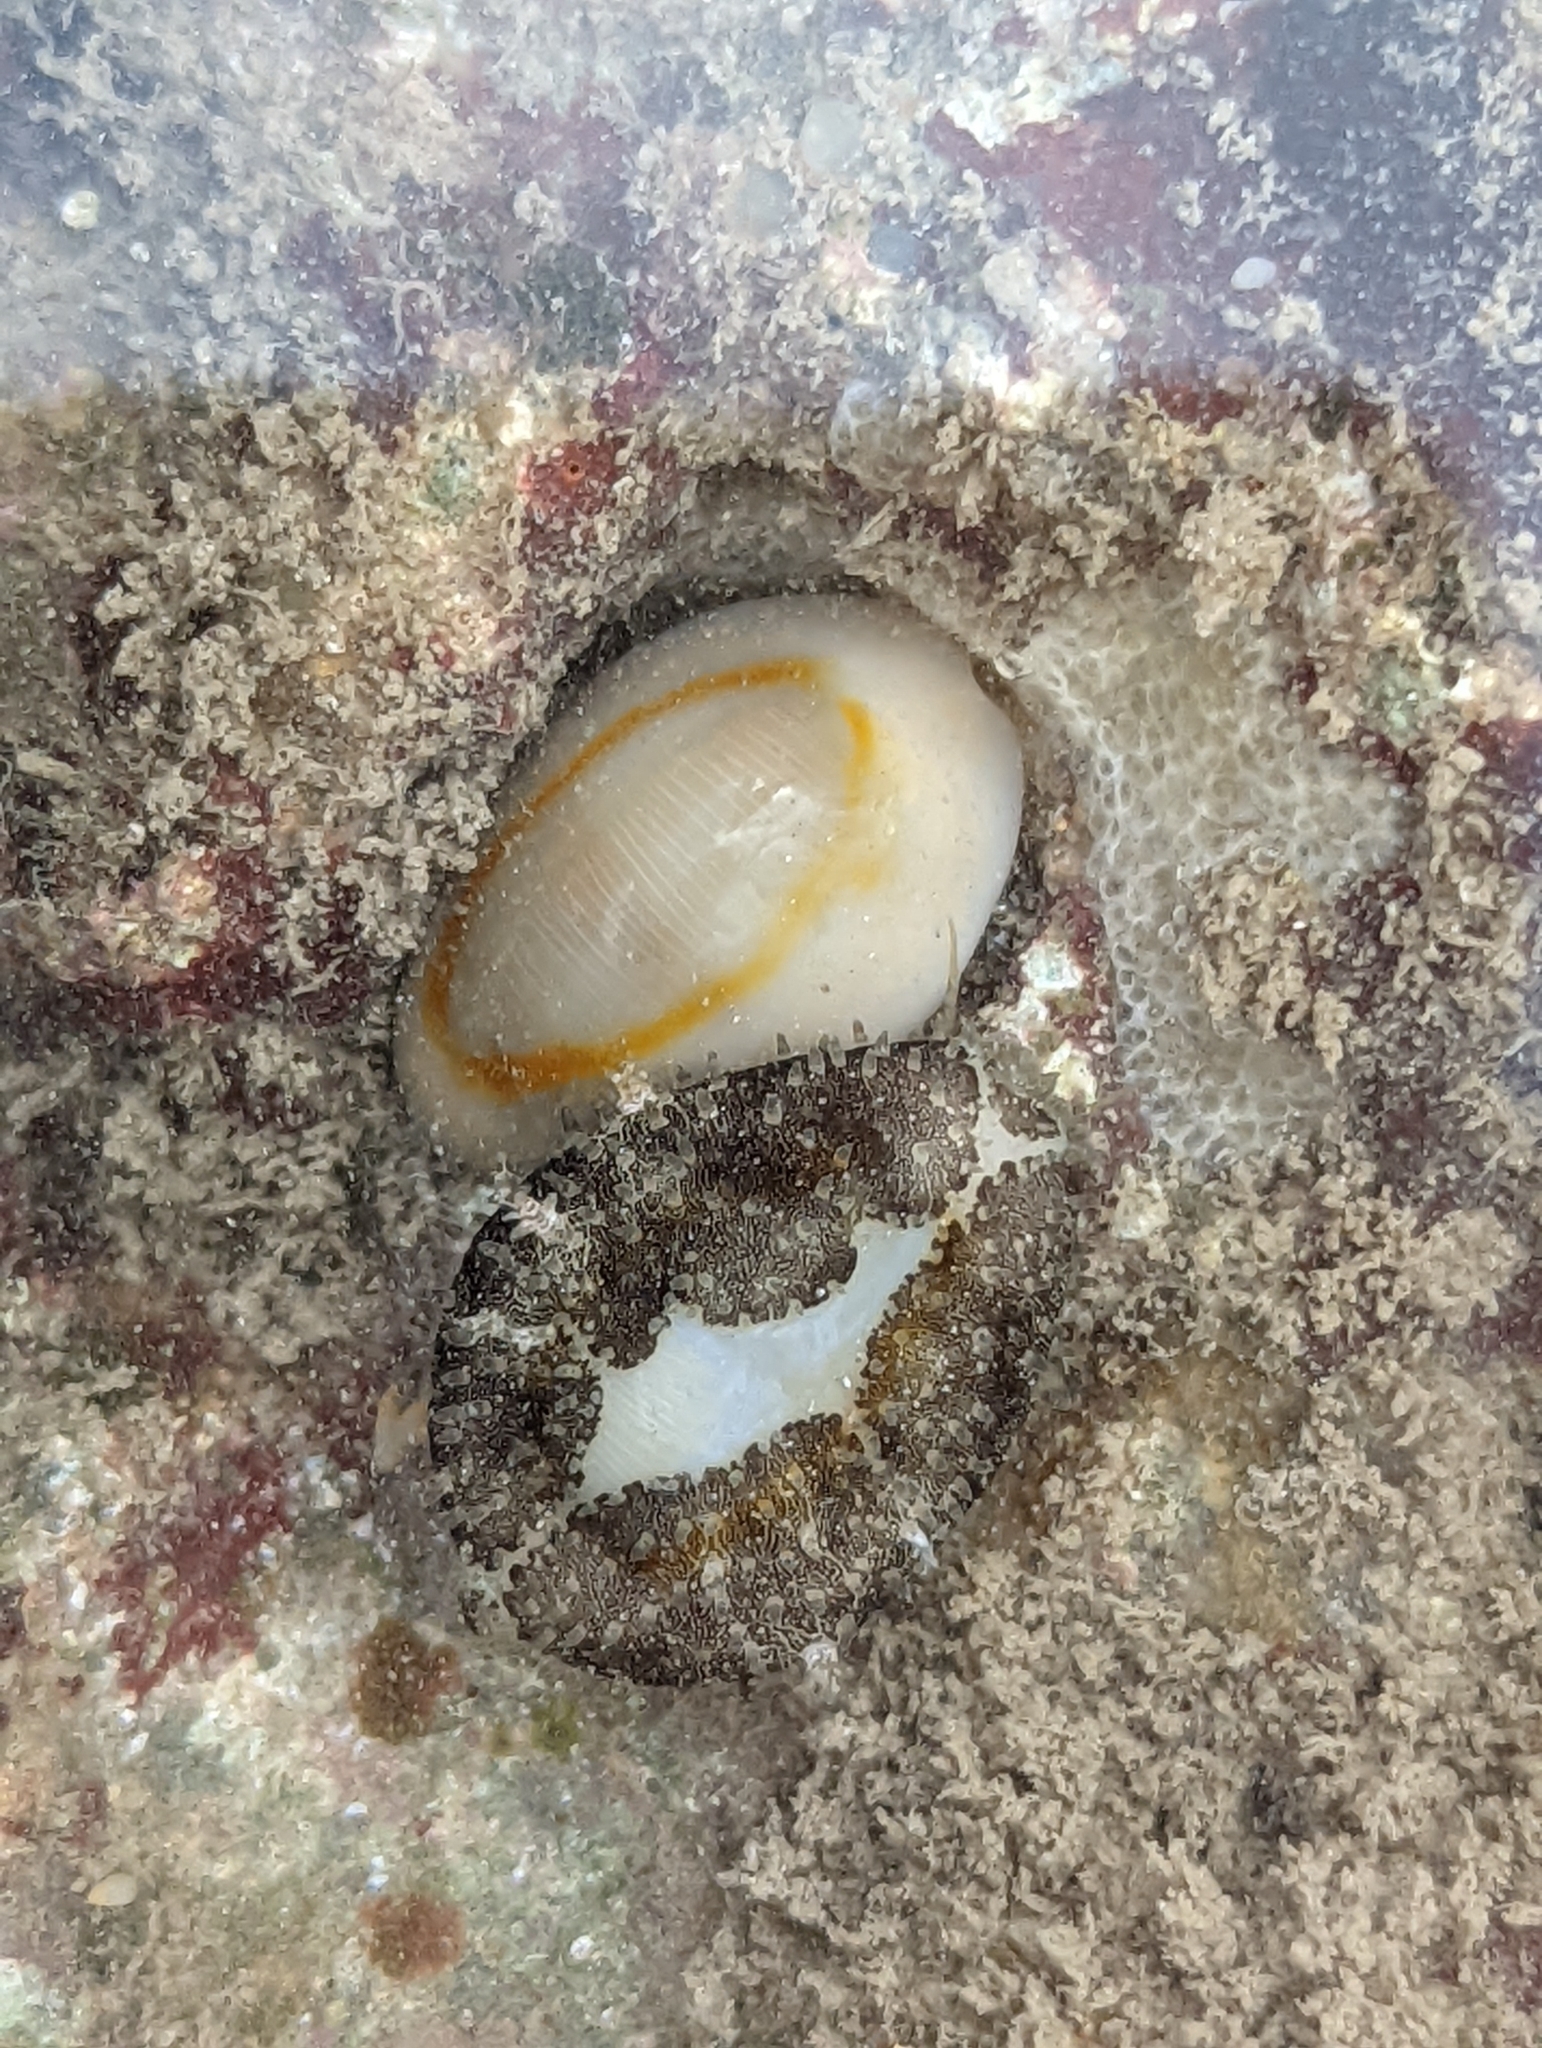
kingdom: Animalia
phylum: Mollusca
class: Gastropoda
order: Littorinimorpha
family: Cypraeidae
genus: Monetaria
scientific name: Monetaria annulus
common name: Ring cowrie
